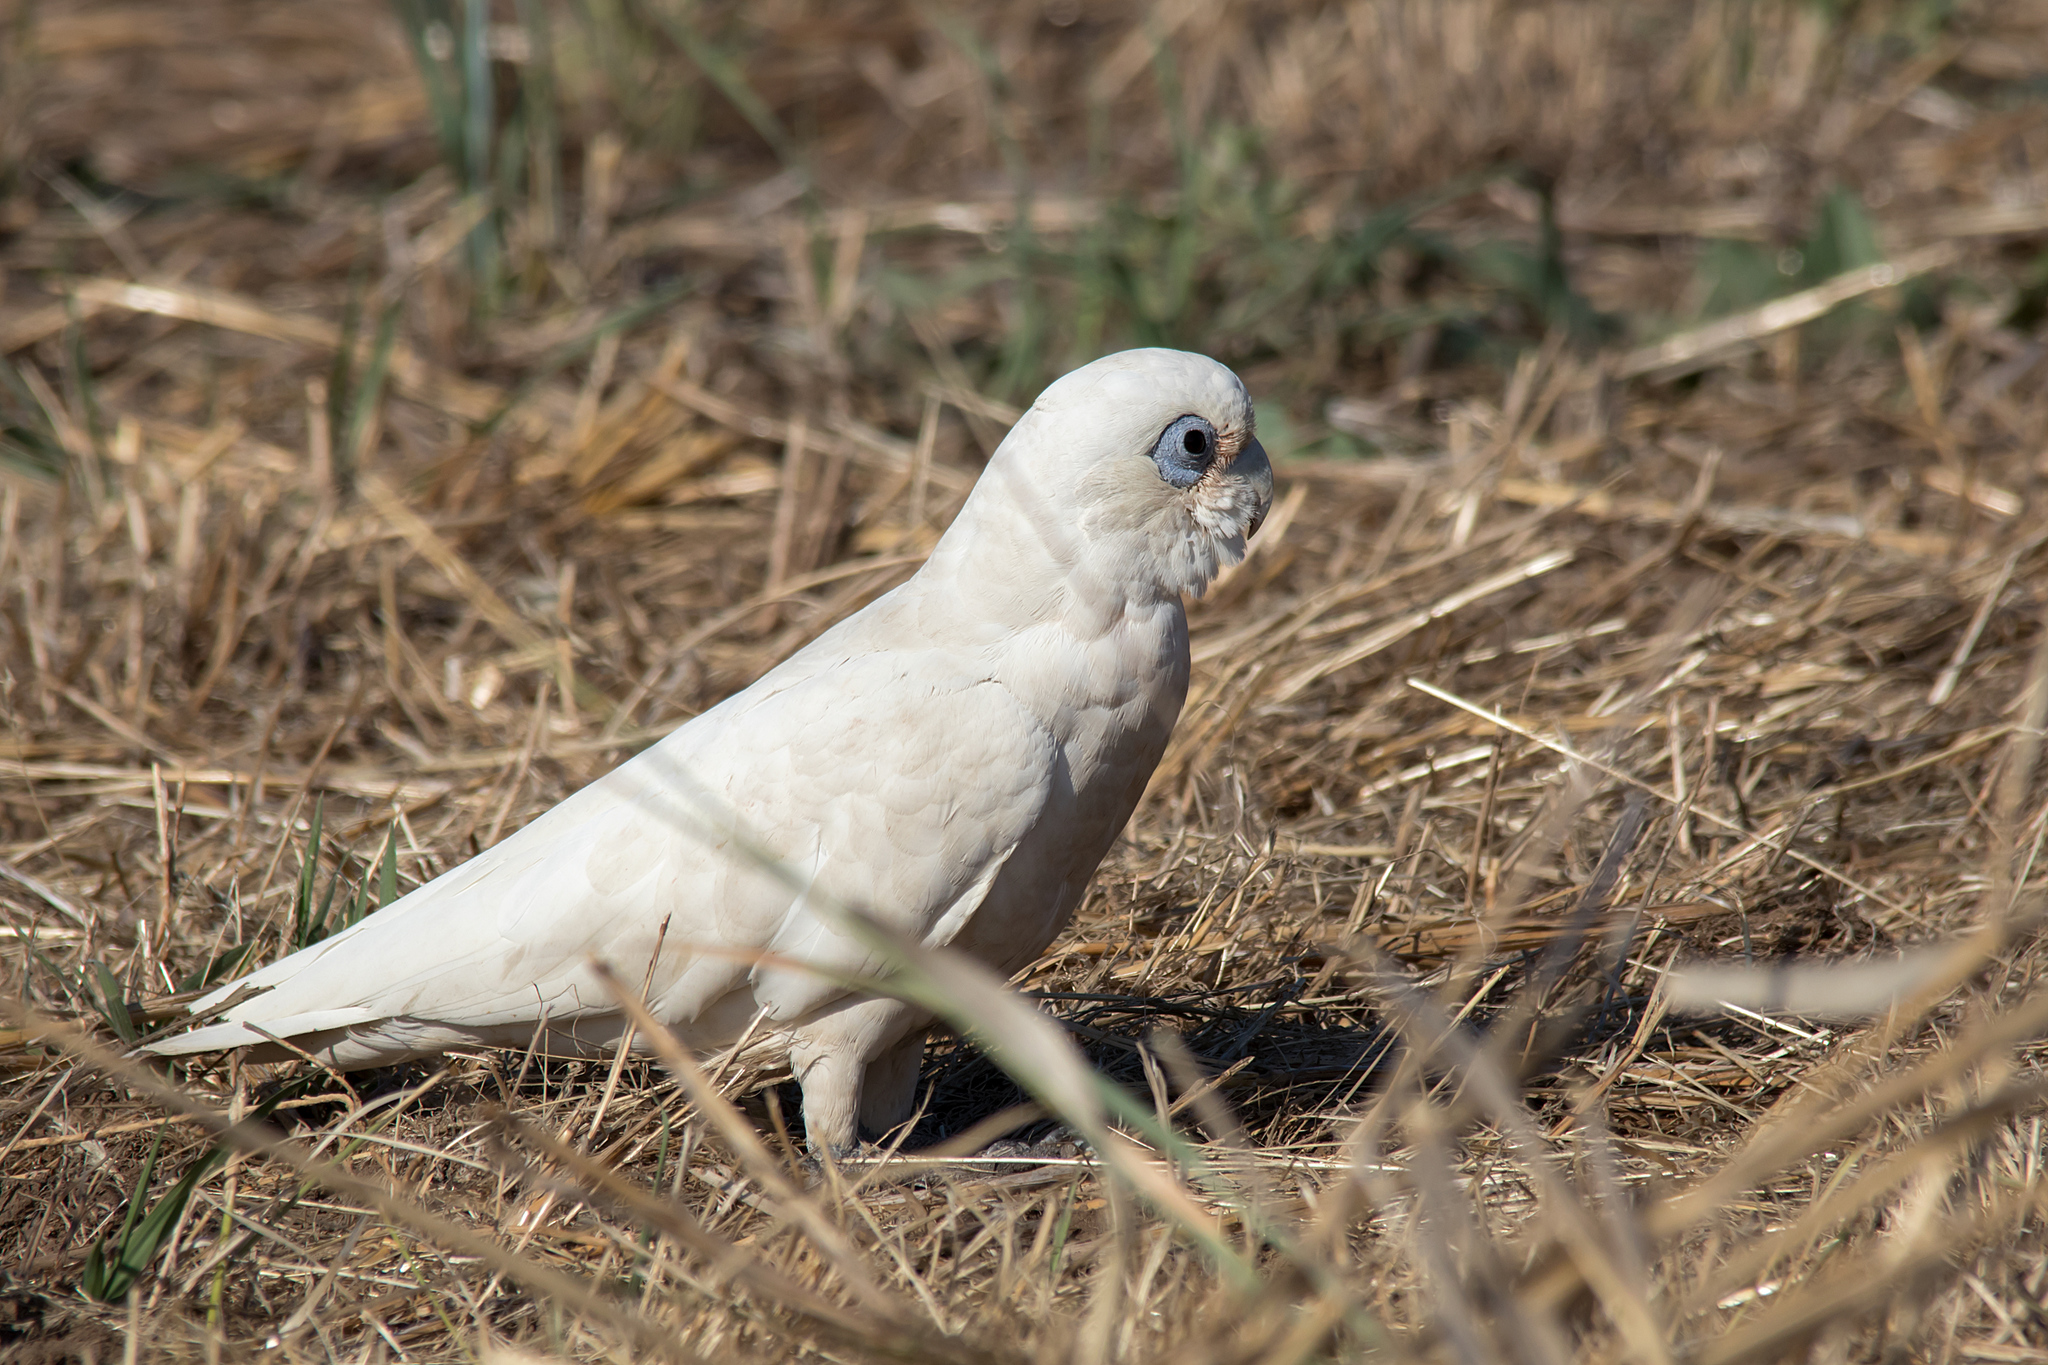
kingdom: Animalia
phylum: Chordata
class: Aves
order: Psittaciformes
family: Psittacidae
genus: Cacatua
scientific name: Cacatua sanguinea
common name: Little corella
